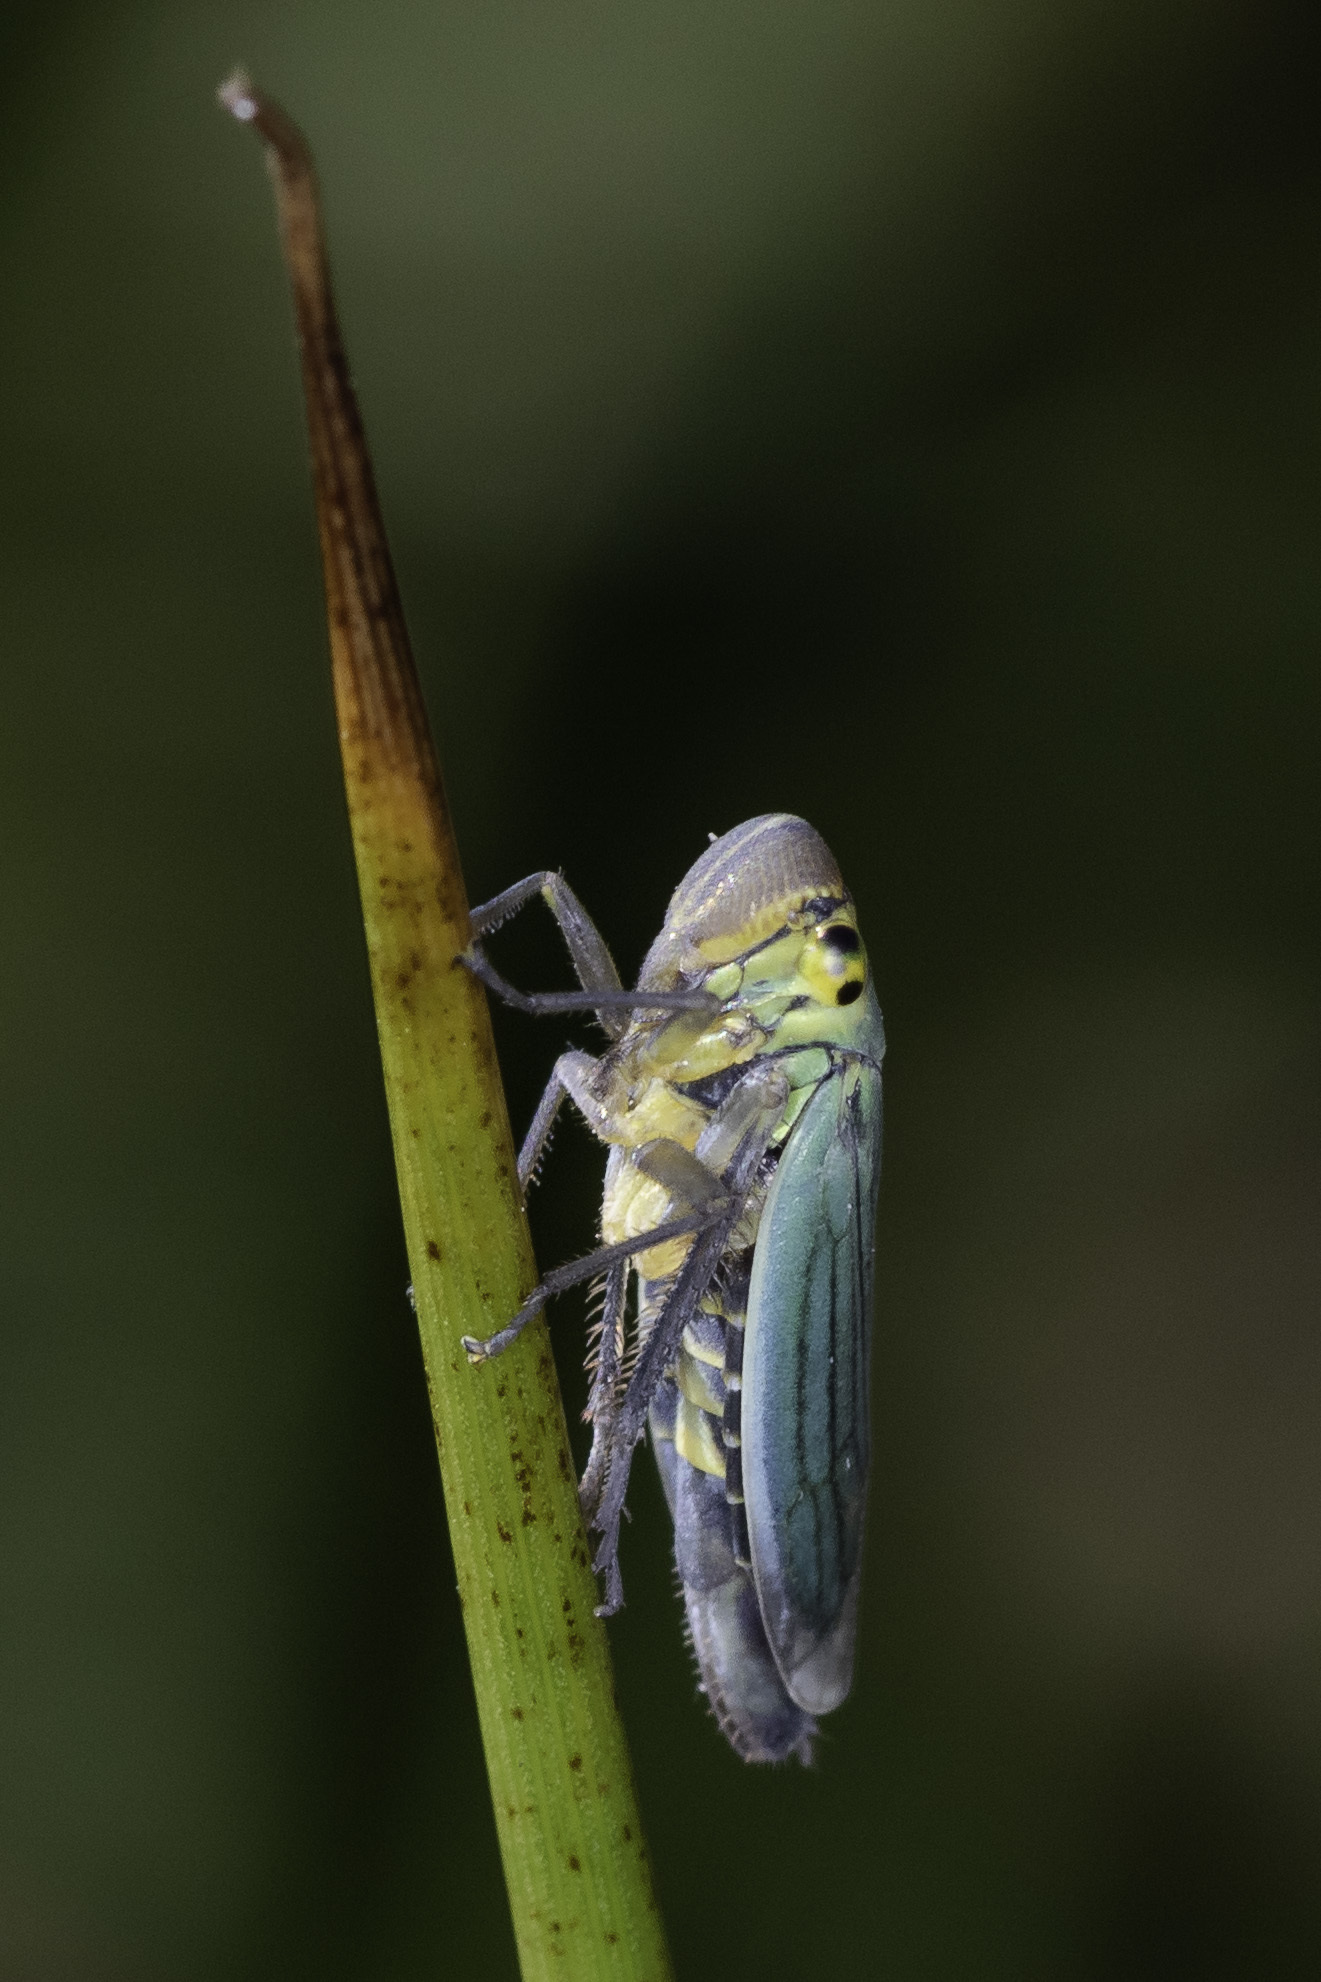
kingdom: Animalia
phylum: Arthropoda
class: Insecta
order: Hemiptera
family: Cicadellidae
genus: Cicadella
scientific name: Cicadella viridis
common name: Leafhopper
